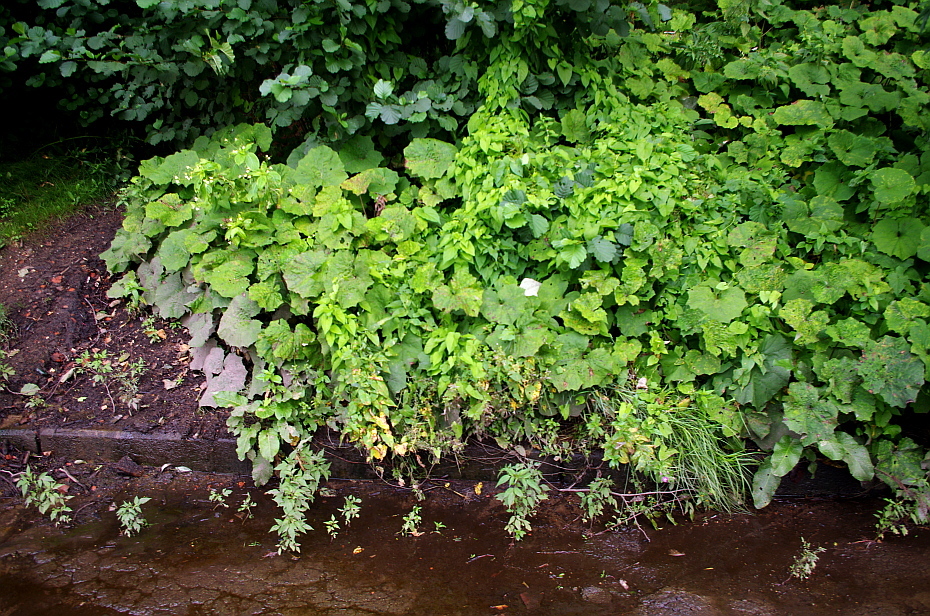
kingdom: Plantae
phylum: Tracheophyta
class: Magnoliopsida
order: Solanales
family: Convolvulaceae
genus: Calystegia
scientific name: Calystegia sepium
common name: Hedge bindweed
